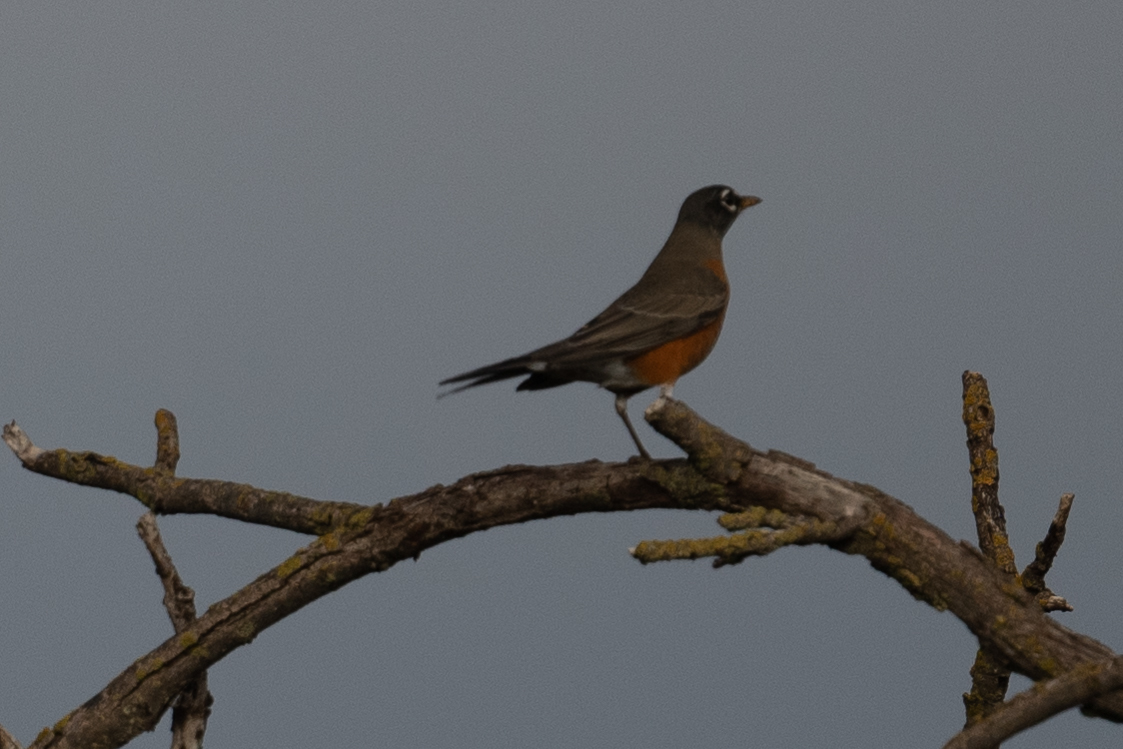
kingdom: Animalia
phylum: Chordata
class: Aves
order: Passeriformes
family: Turdidae
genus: Turdus
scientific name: Turdus migratorius
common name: American robin
